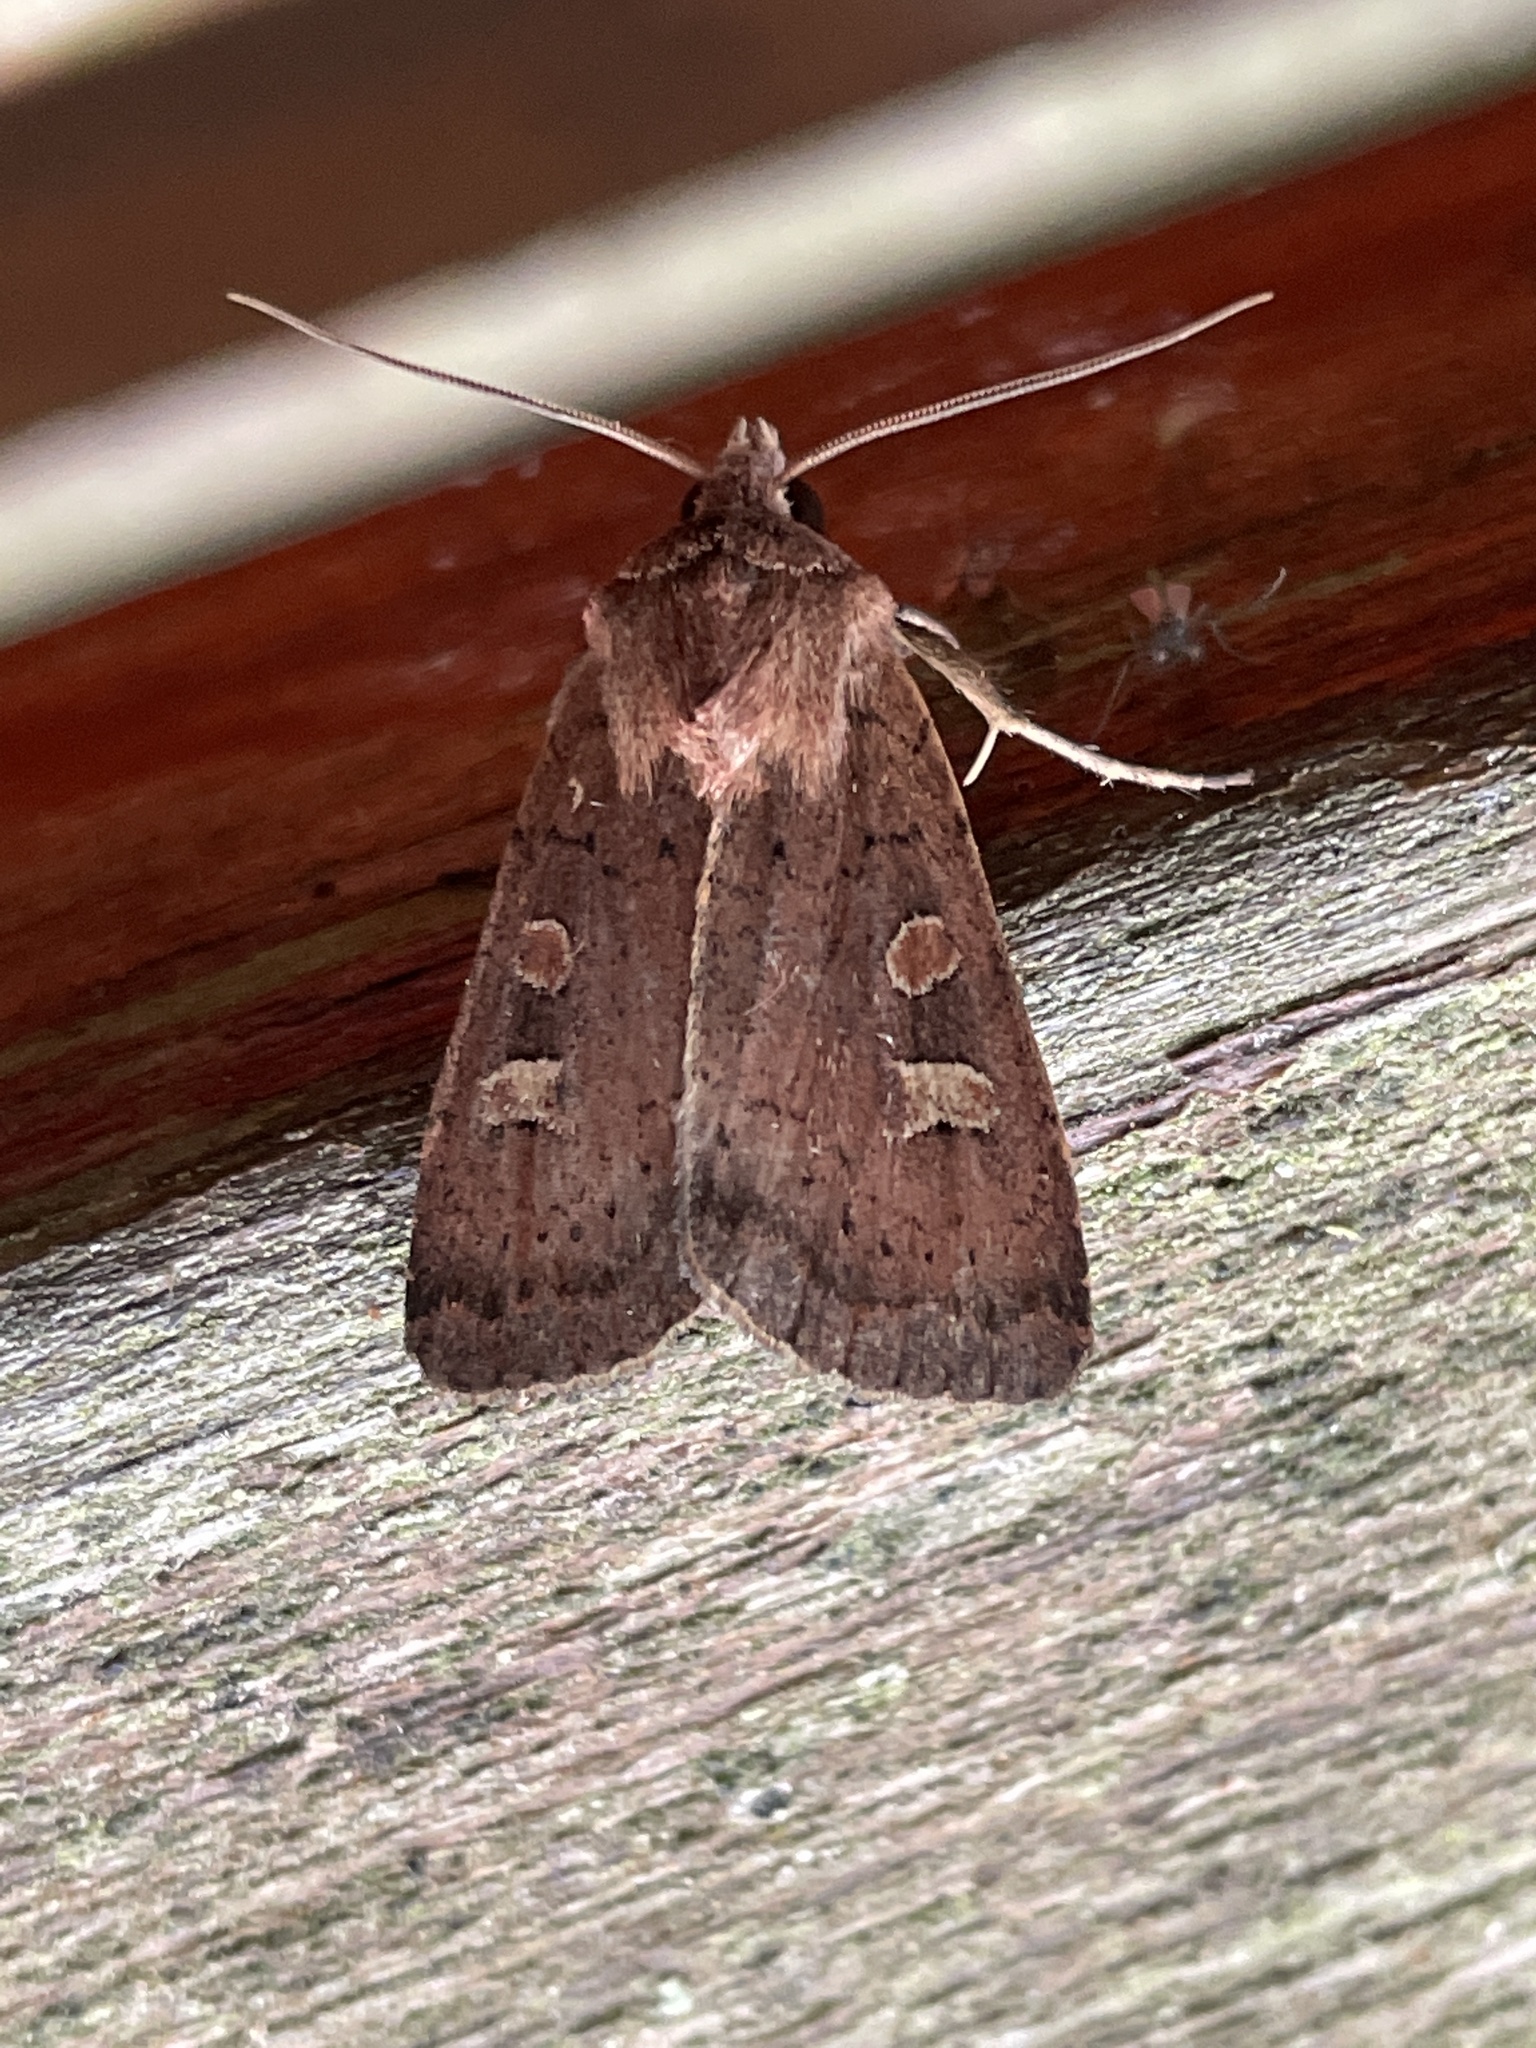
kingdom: Animalia
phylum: Arthropoda
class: Insecta
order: Lepidoptera
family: Noctuidae
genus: Xestia
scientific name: Xestia xanthographa
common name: Square-spot rustic
